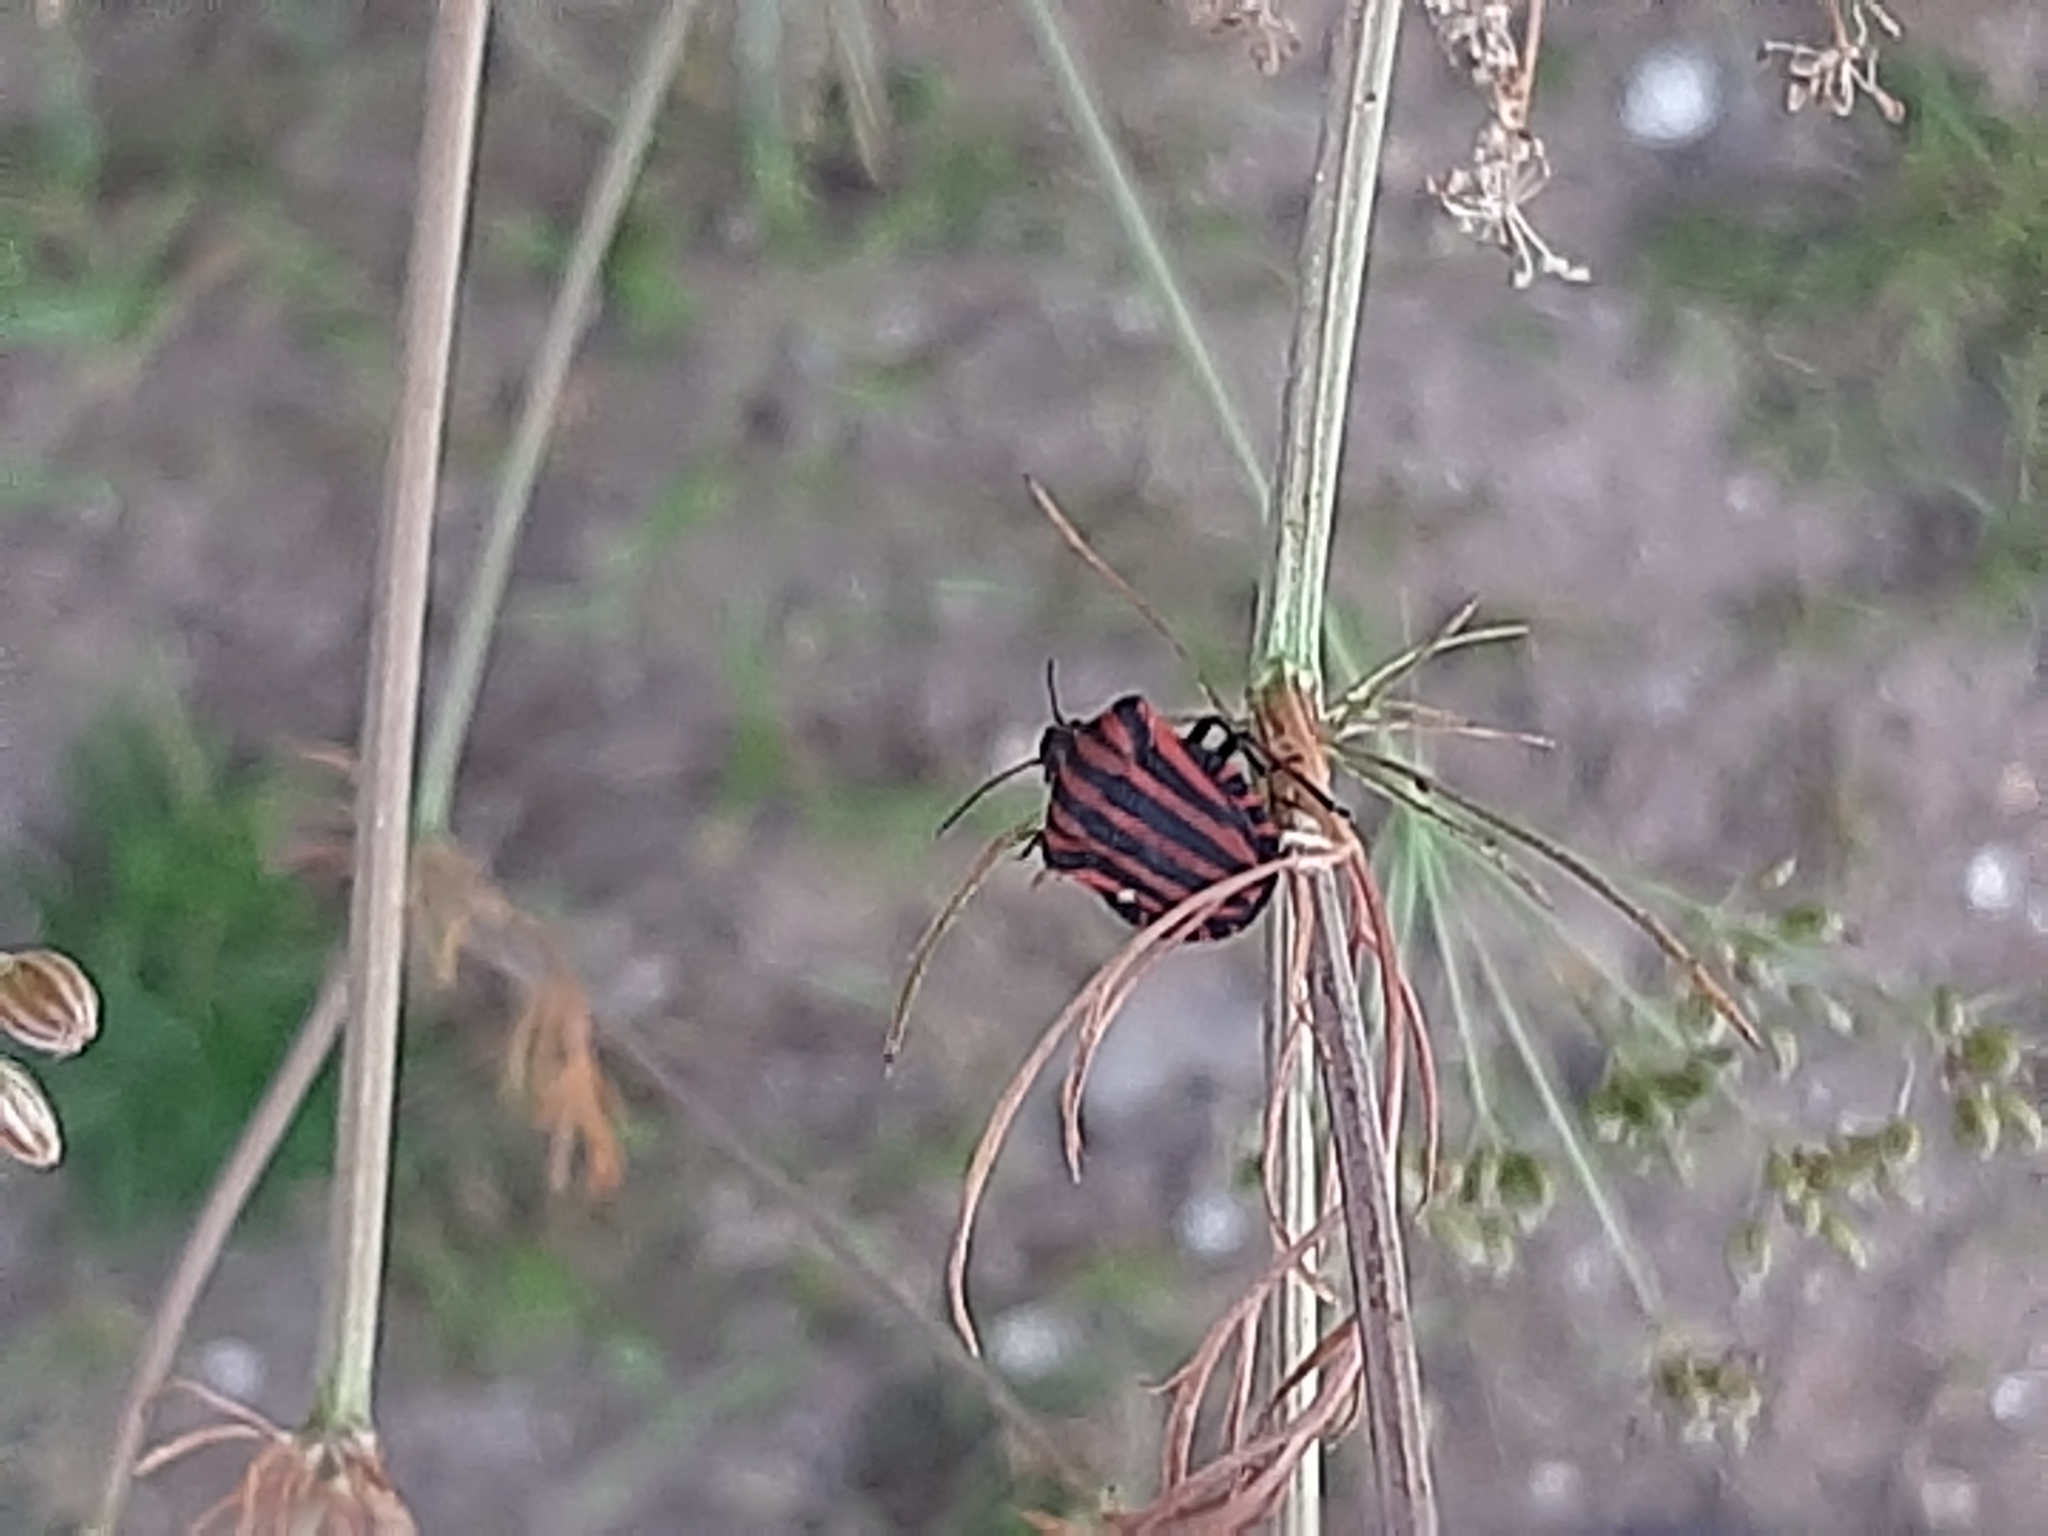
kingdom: Animalia
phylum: Arthropoda
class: Insecta
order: Hemiptera
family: Pentatomidae
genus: Graphosoma
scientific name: Graphosoma italicum
